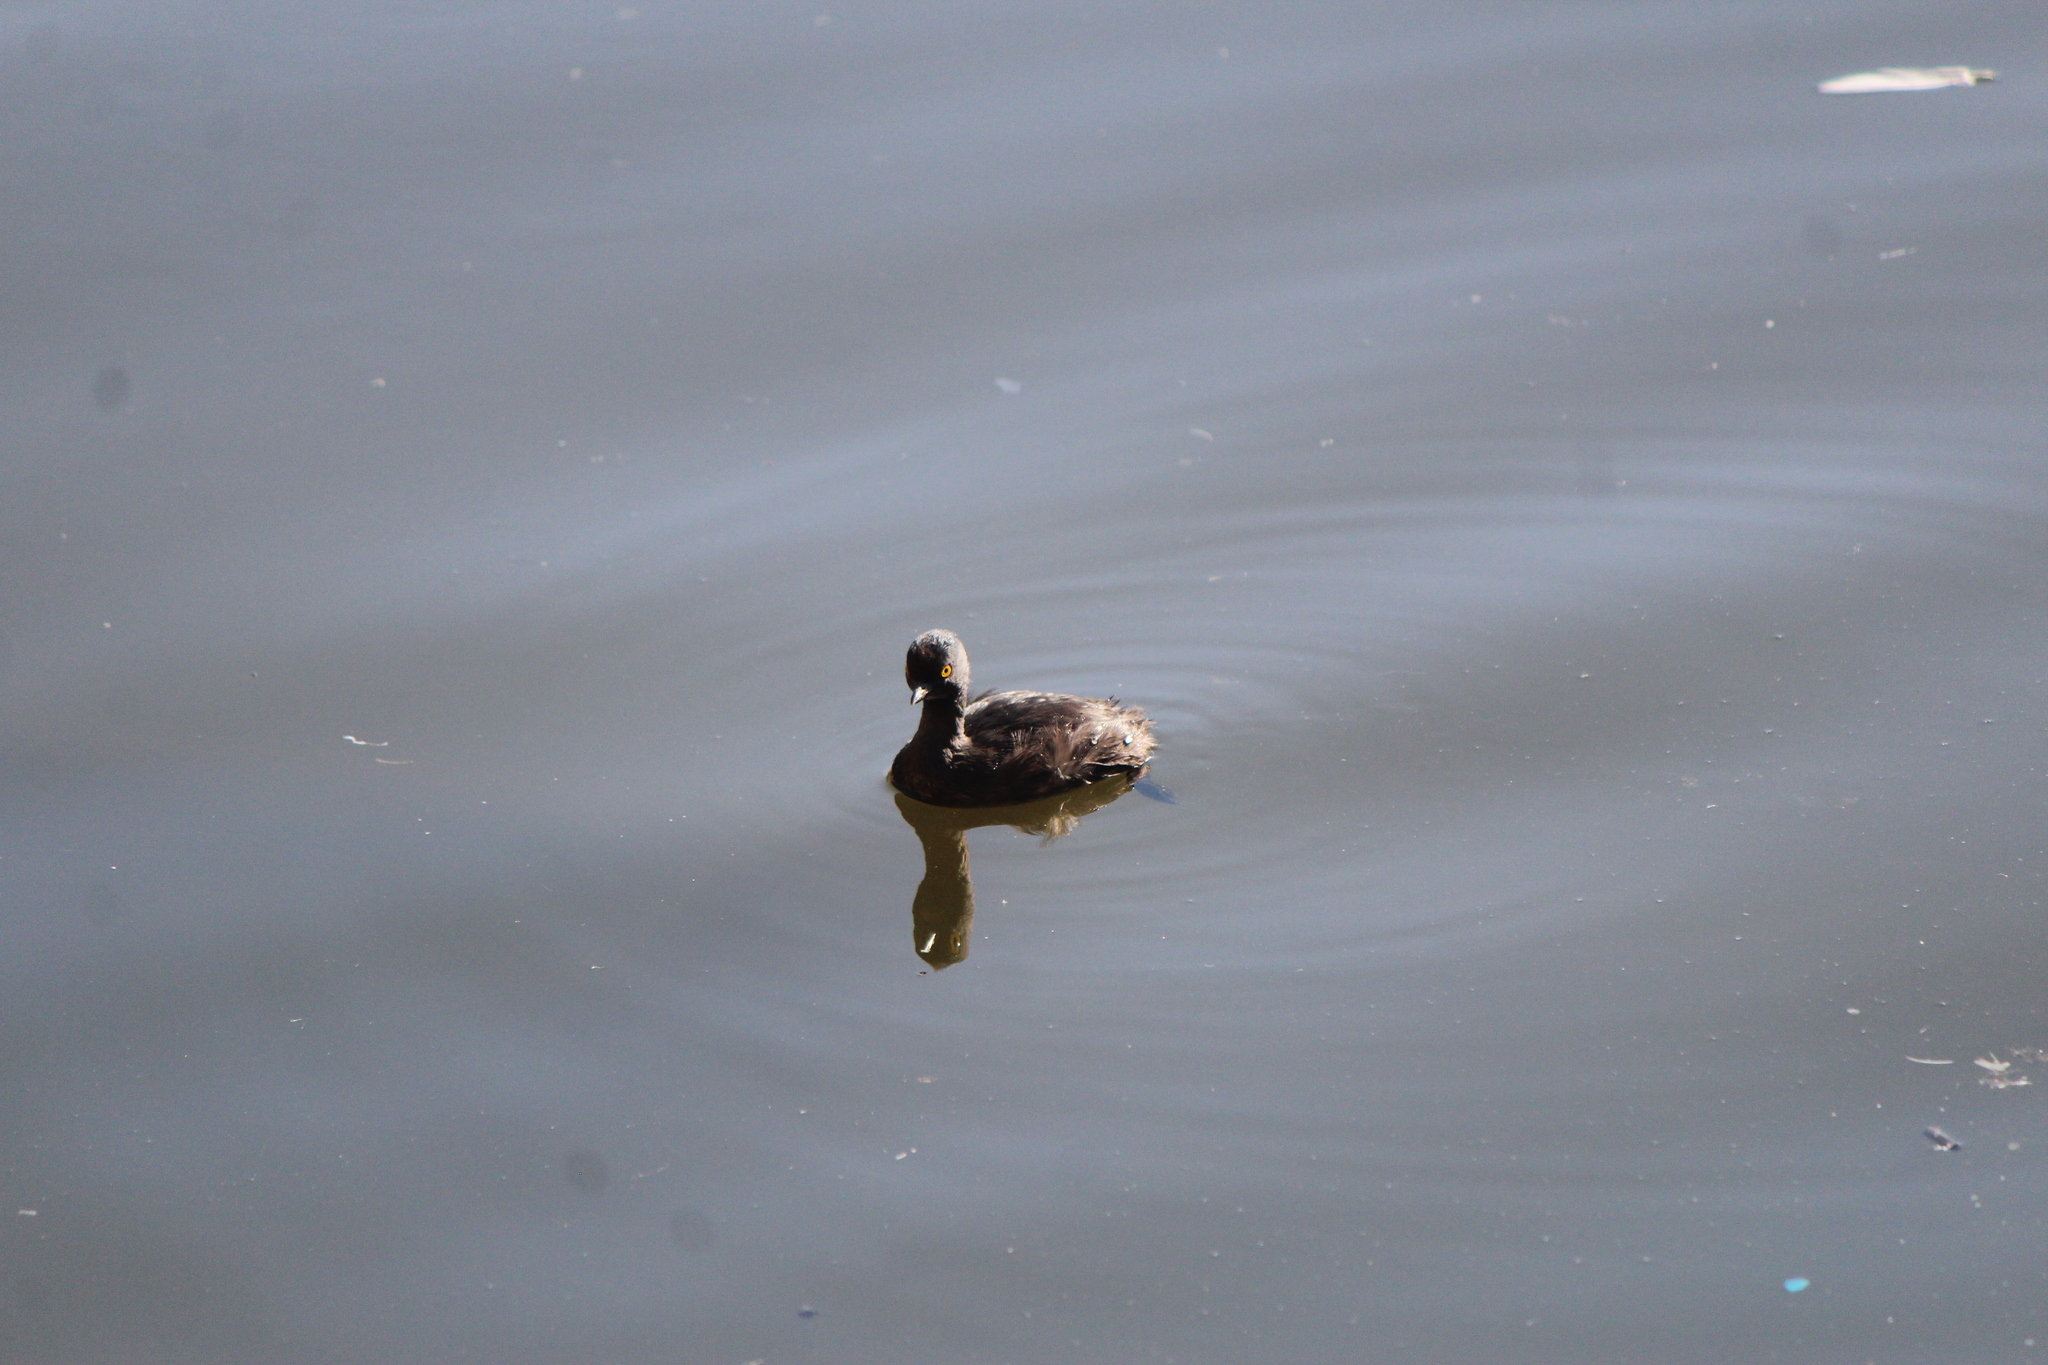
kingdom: Animalia
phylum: Chordata
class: Aves
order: Podicipediformes
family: Podicipedidae
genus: Tachybaptus
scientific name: Tachybaptus dominicus
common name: Least grebe
